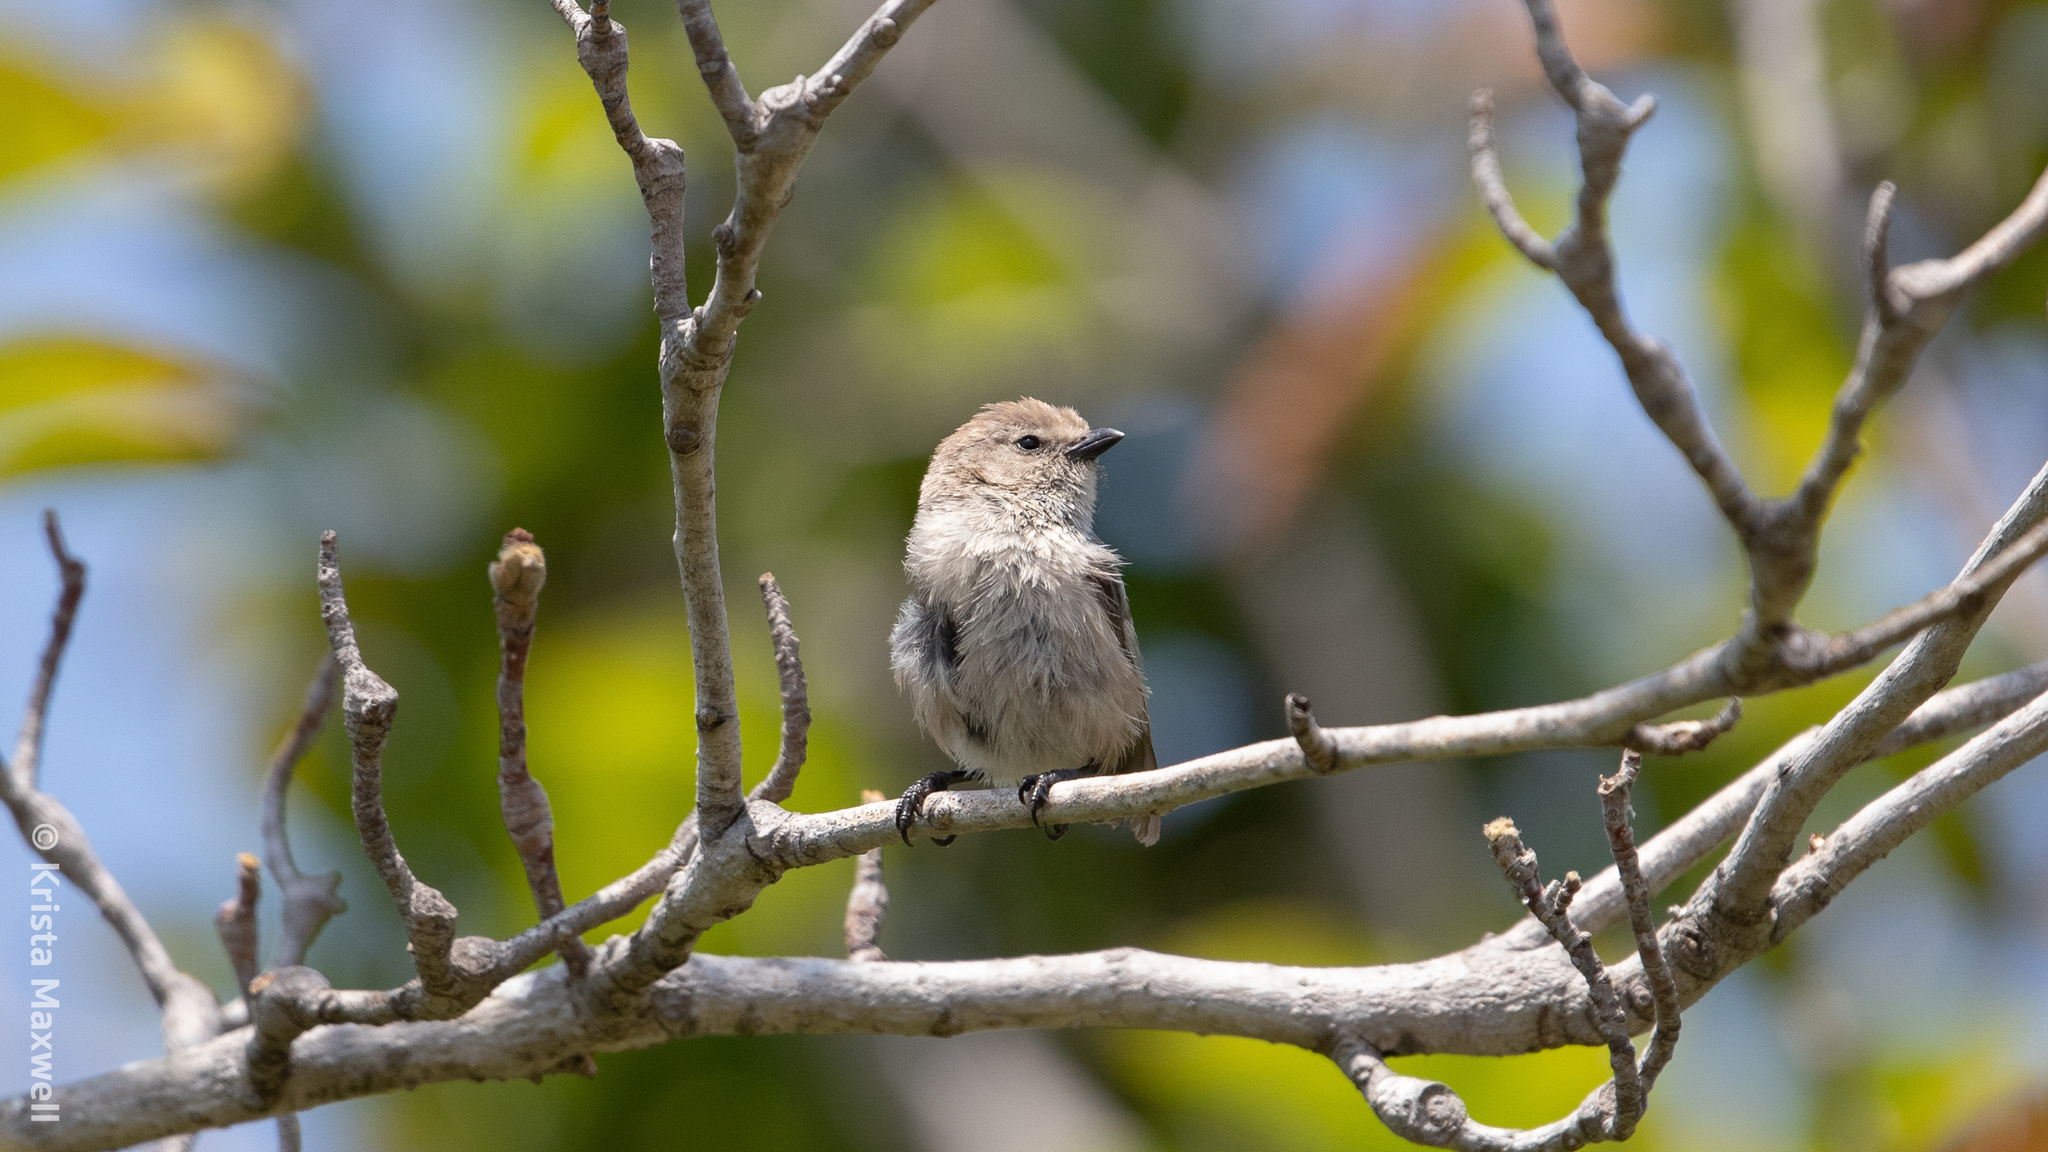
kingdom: Animalia
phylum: Chordata
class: Aves
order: Passeriformes
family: Aegithalidae
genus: Psaltriparus
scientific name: Psaltriparus minimus
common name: American bushtit
